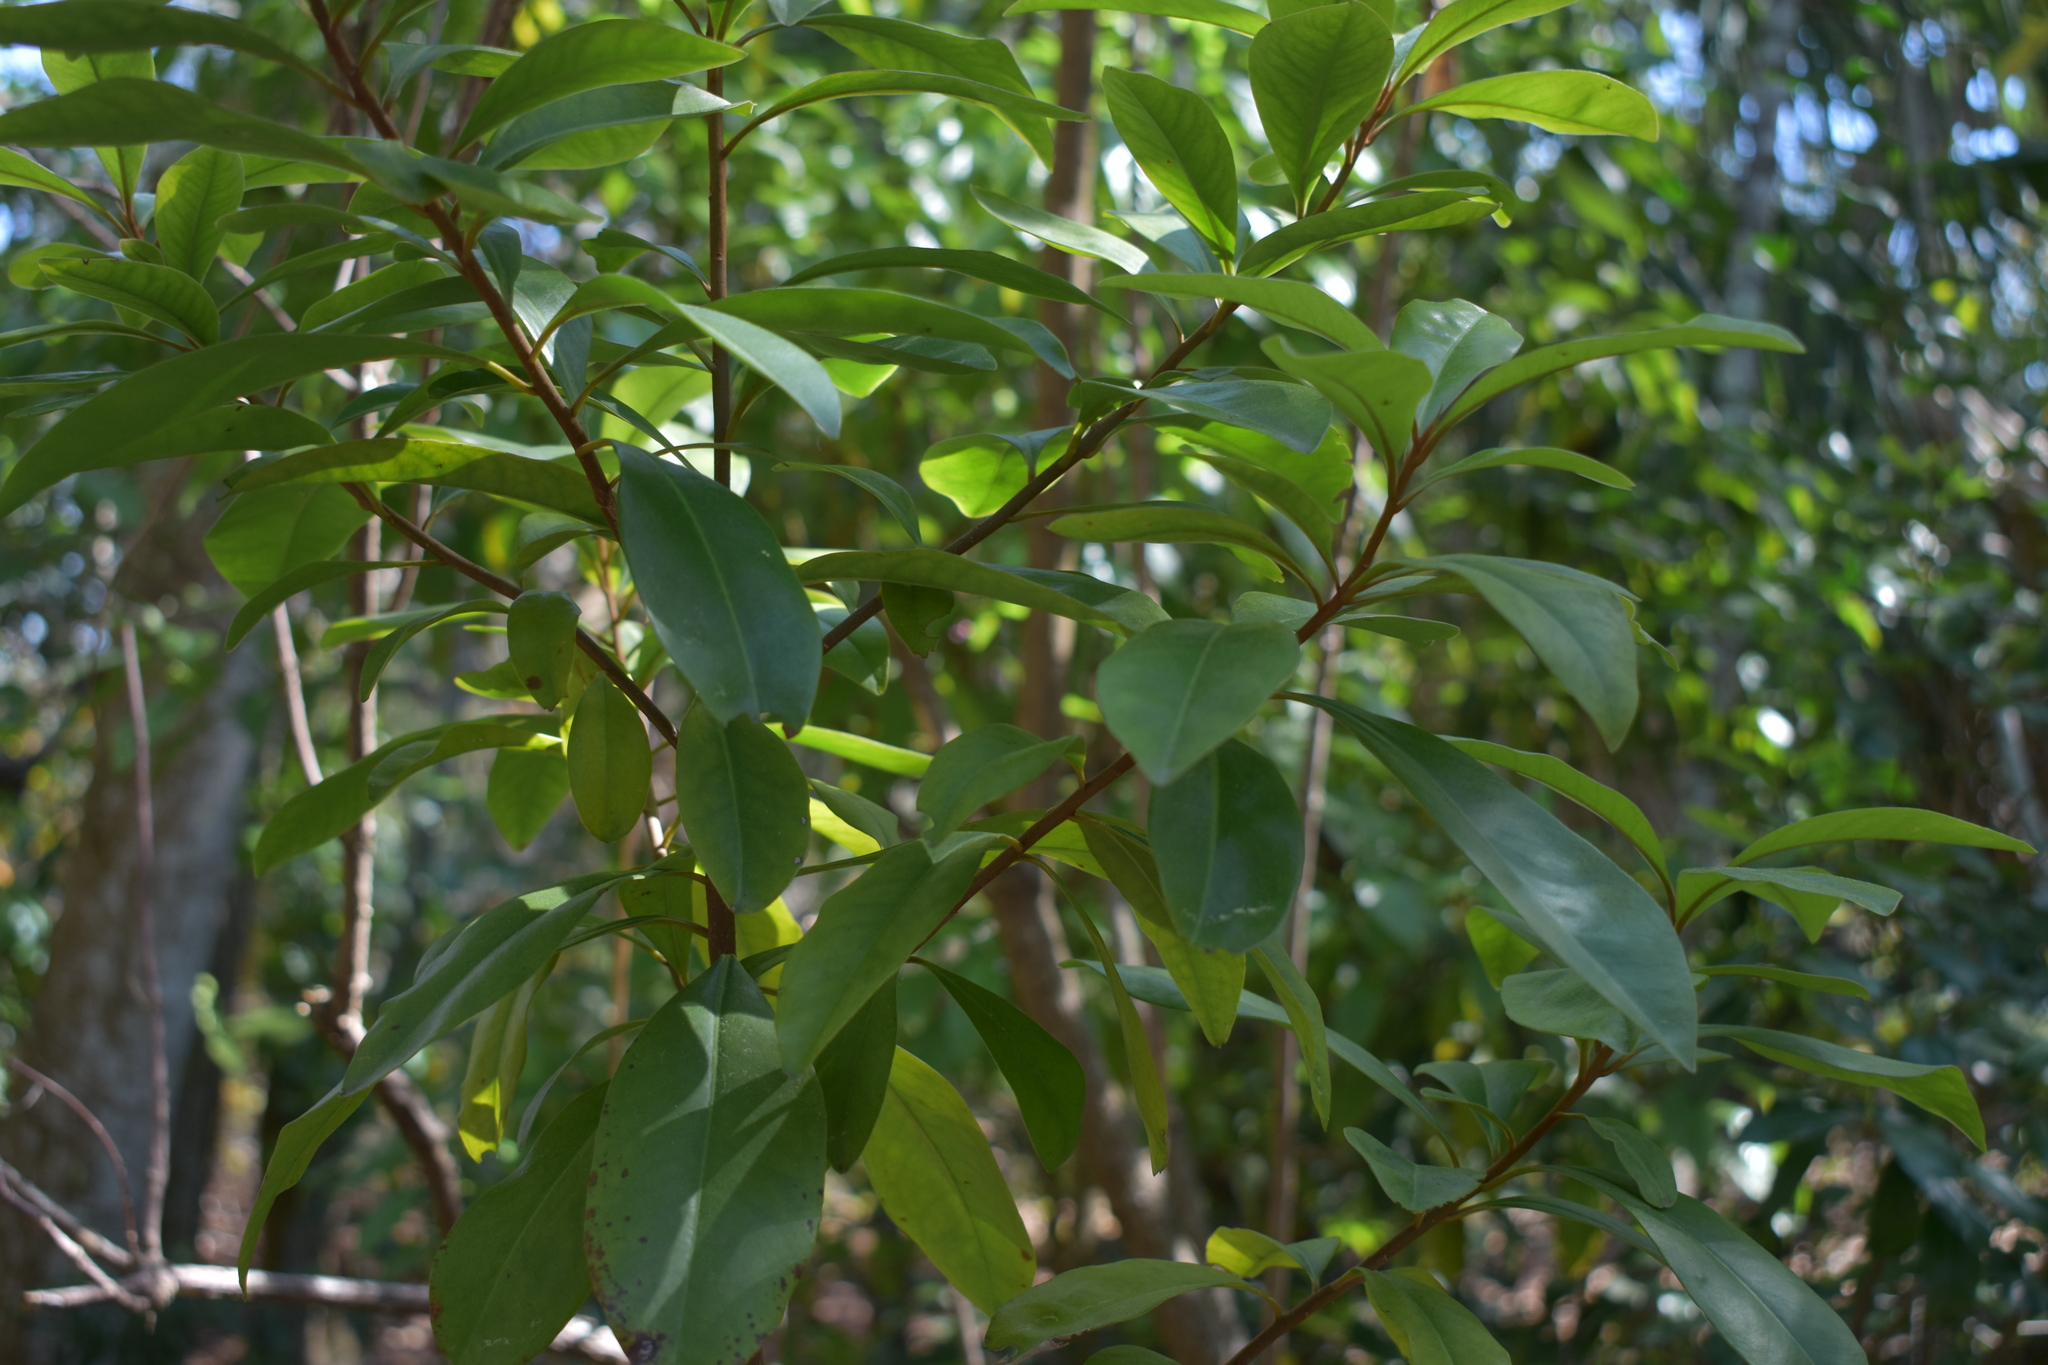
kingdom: Plantae
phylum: Tracheophyta
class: Magnoliopsida
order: Ericales
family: Primulaceae
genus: Ardisia
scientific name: Ardisia escallonioides
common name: Island marlberry
